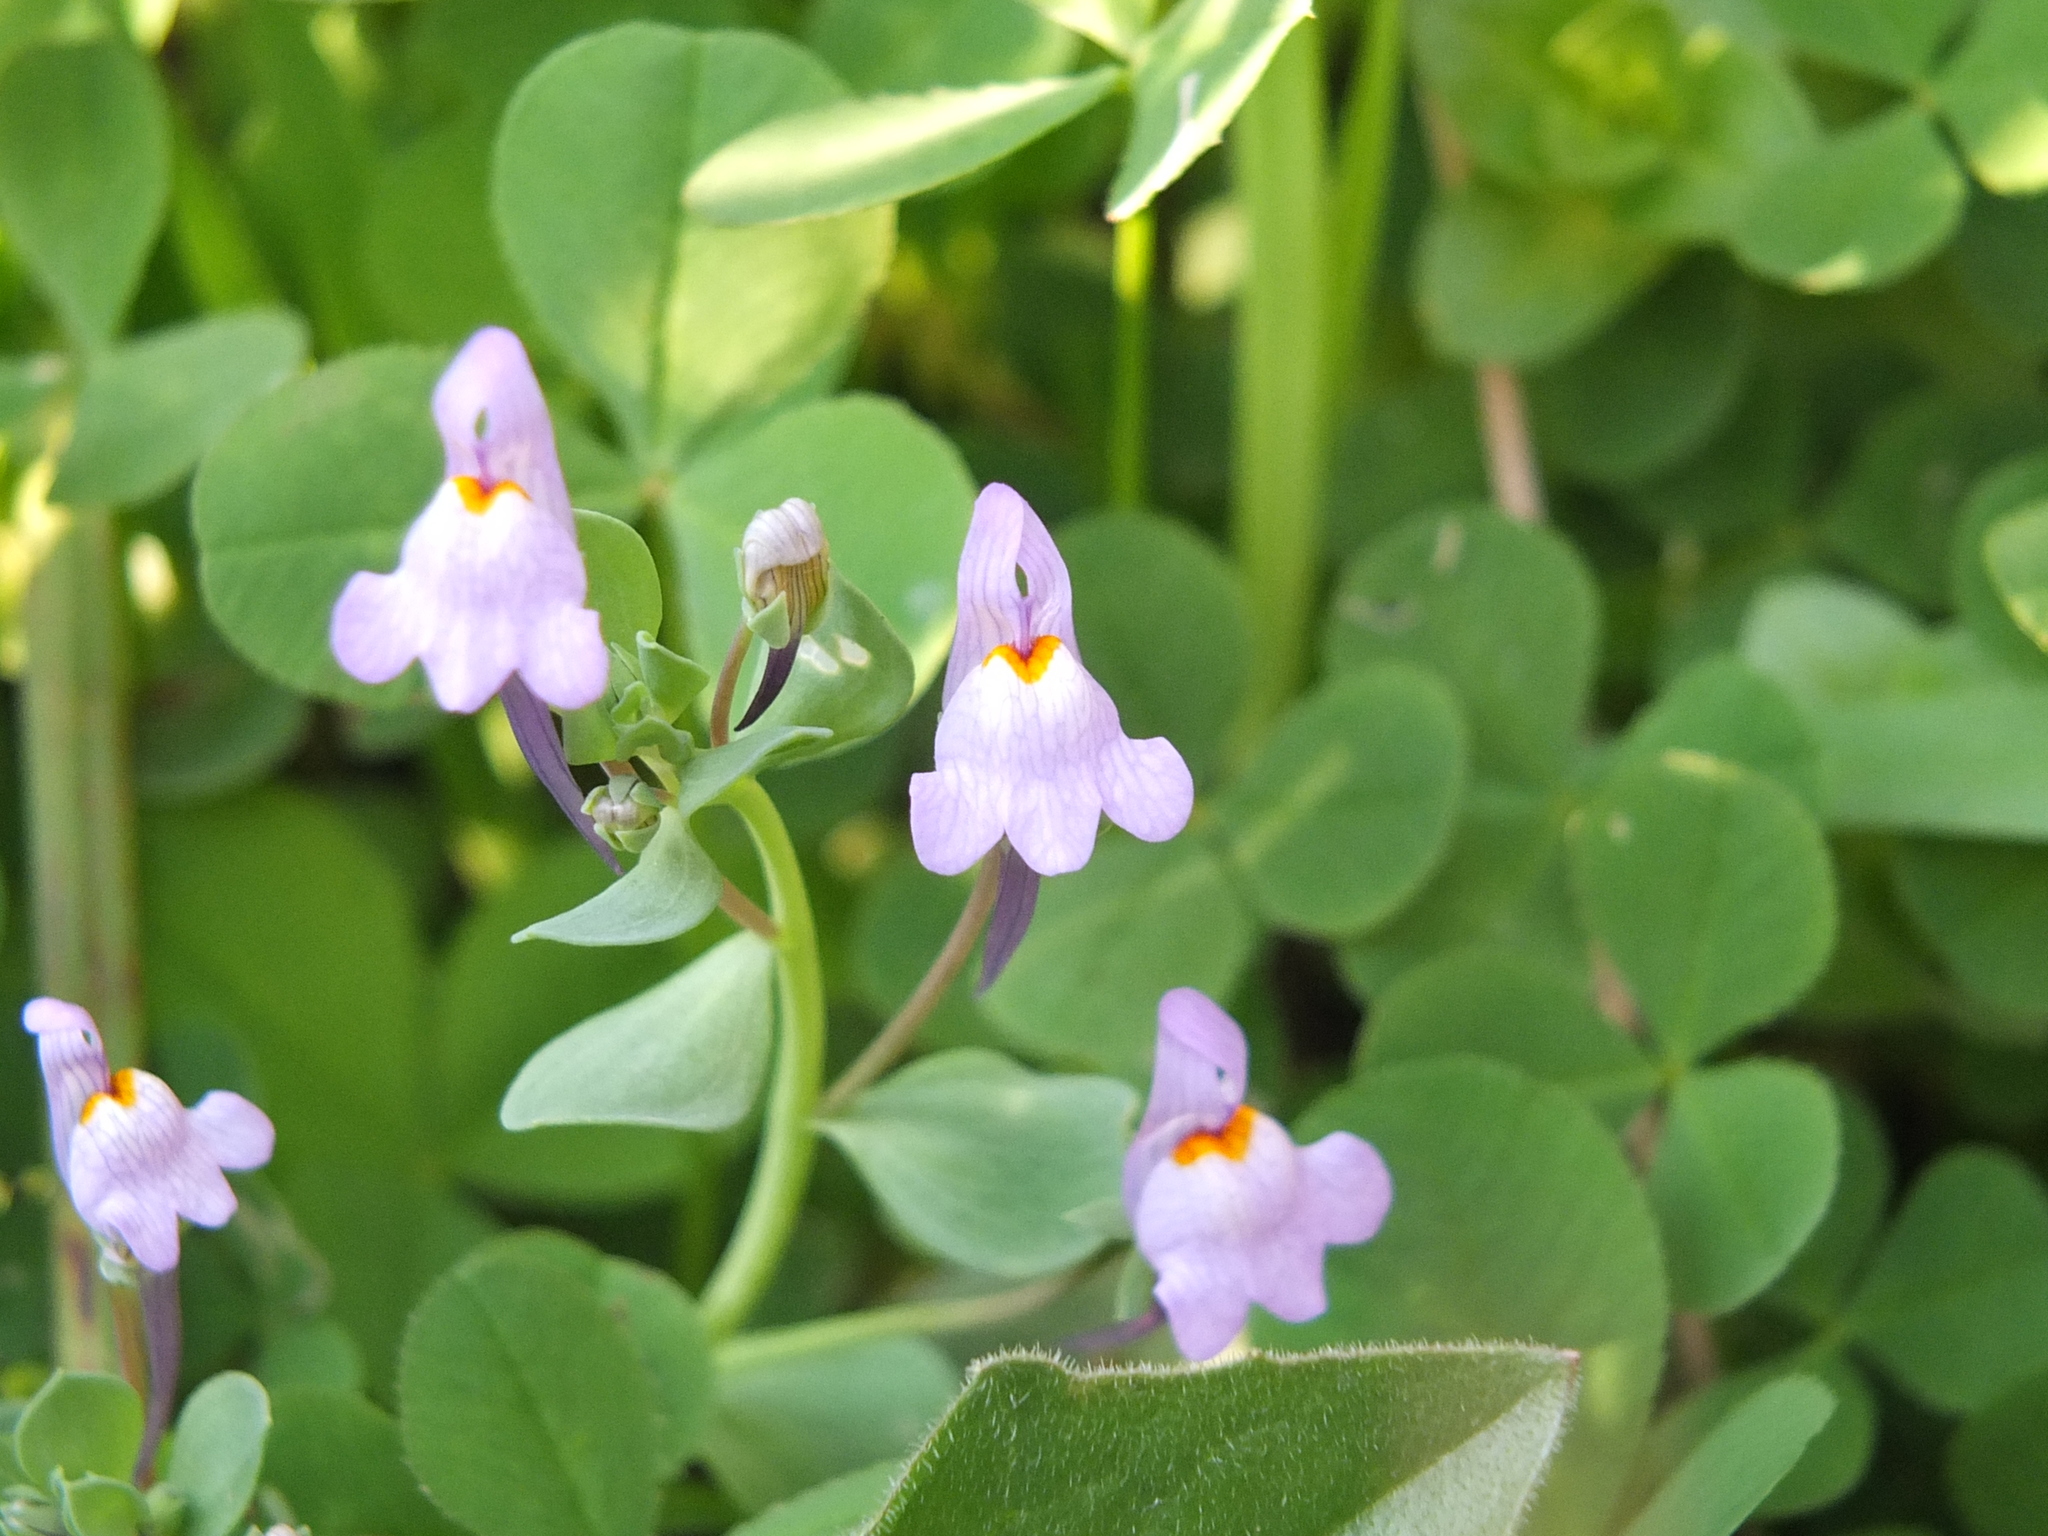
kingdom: Plantae
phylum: Tracheophyta
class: Magnoliopsida
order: Lamiales
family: Plantaginaceae
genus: Linaria
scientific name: Linaria reflexa
